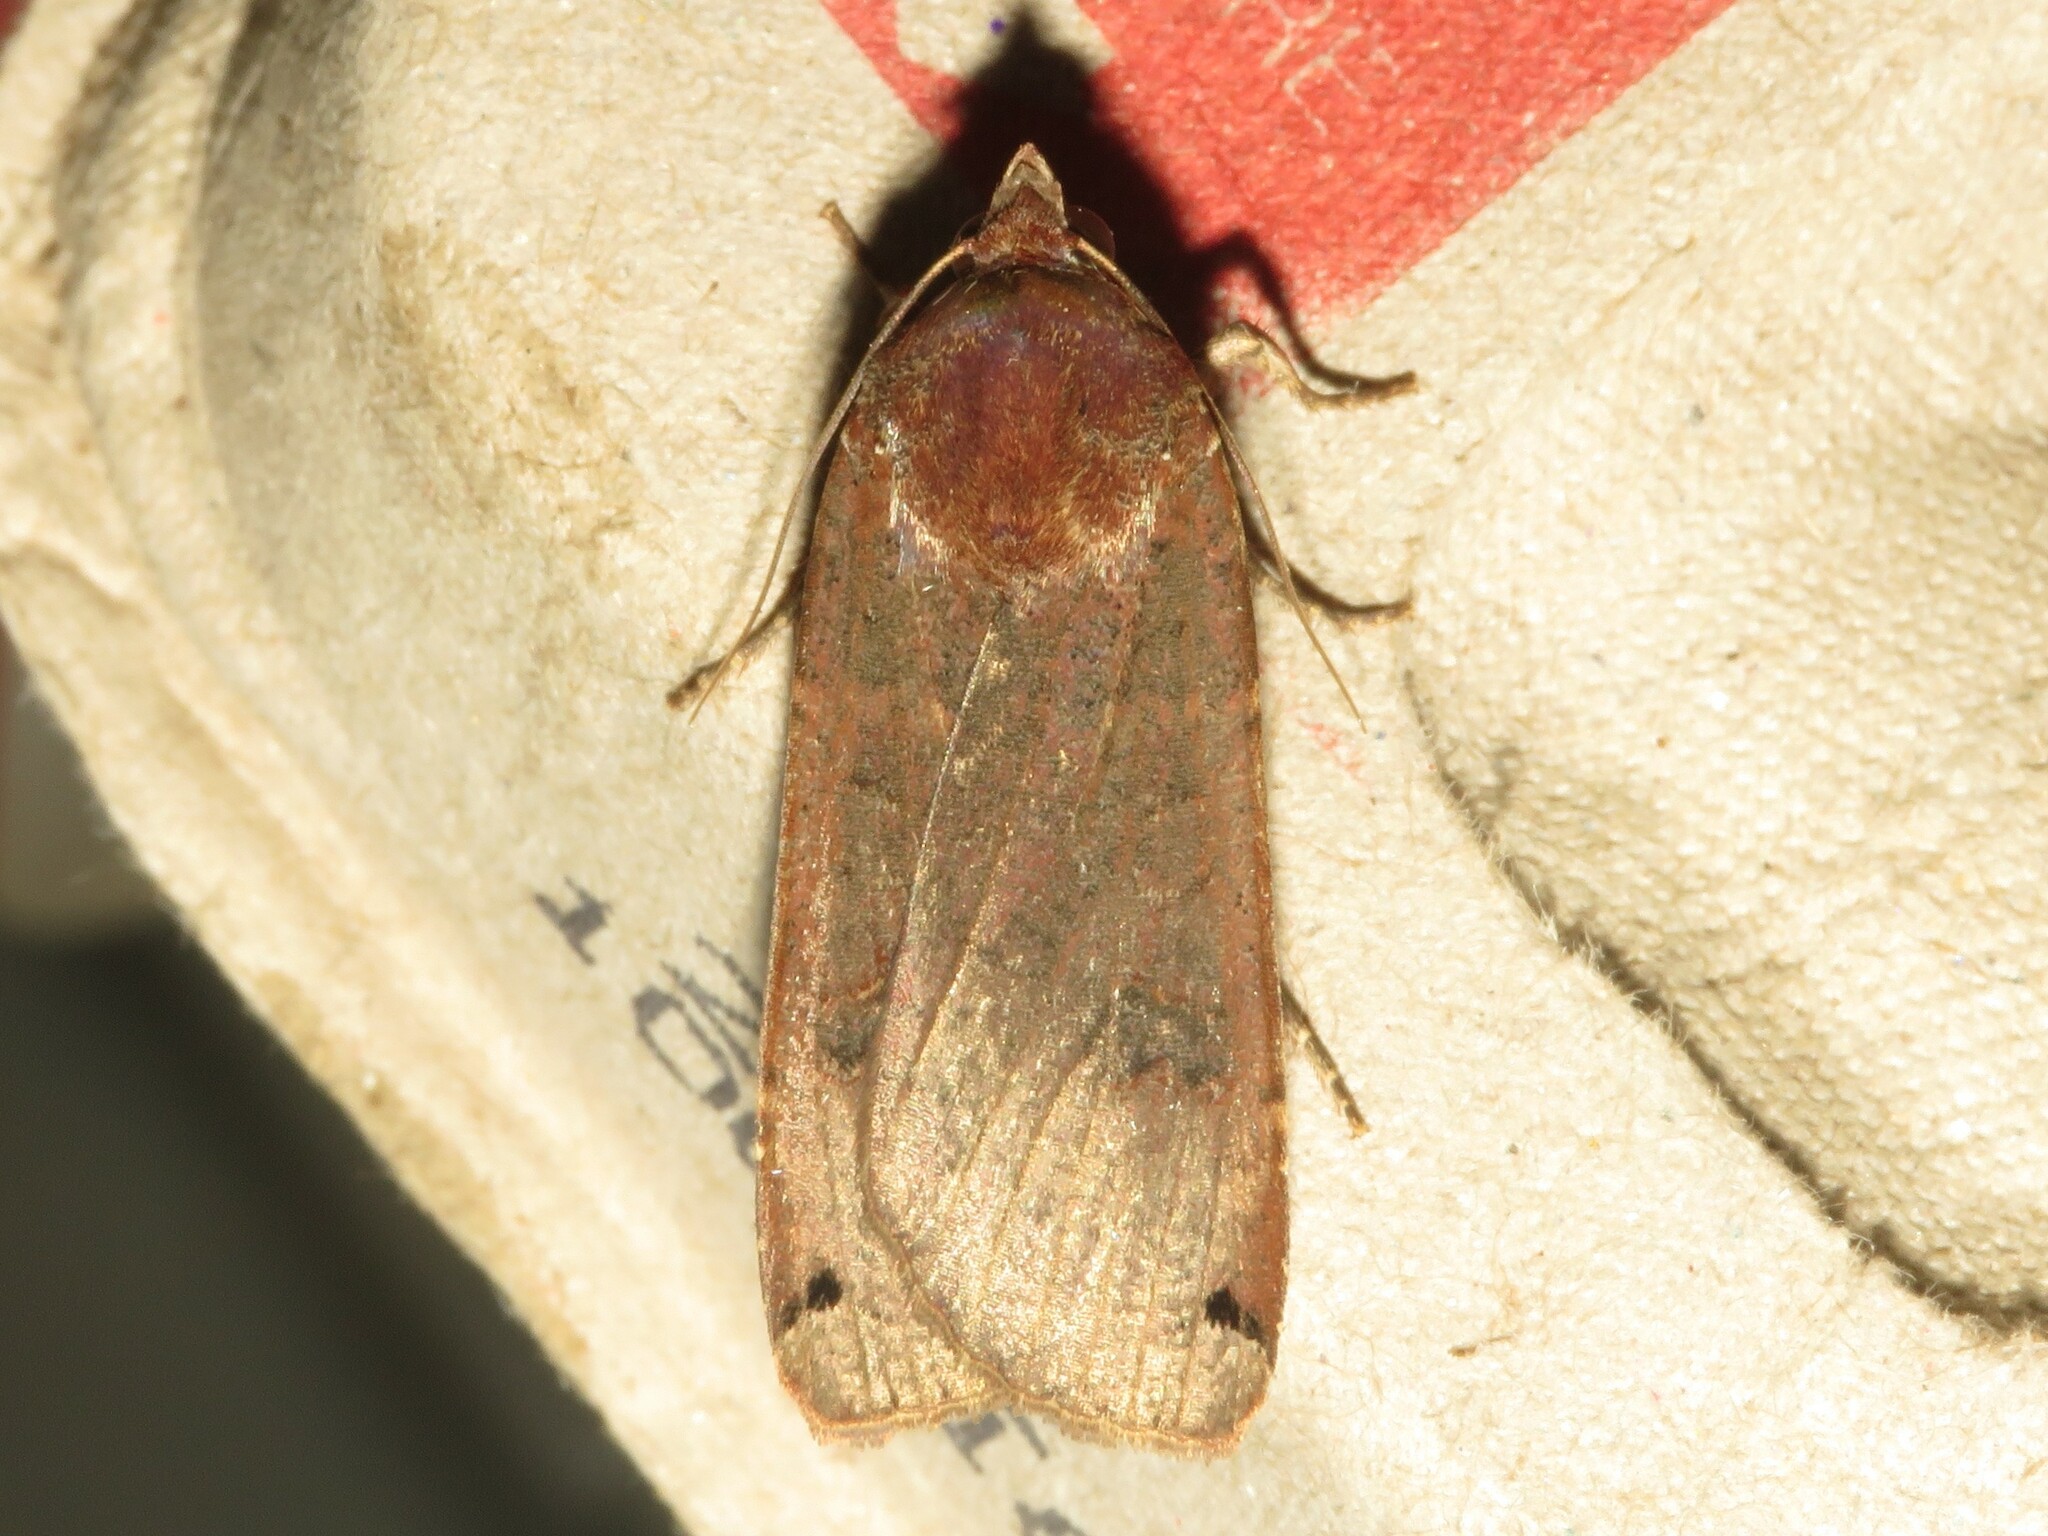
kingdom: Animalia
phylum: Arthropoda
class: Insecta
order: Lepidoptera
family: Noctuidae
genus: Noctua
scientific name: Noctua pronuba
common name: Large yellow underwing
